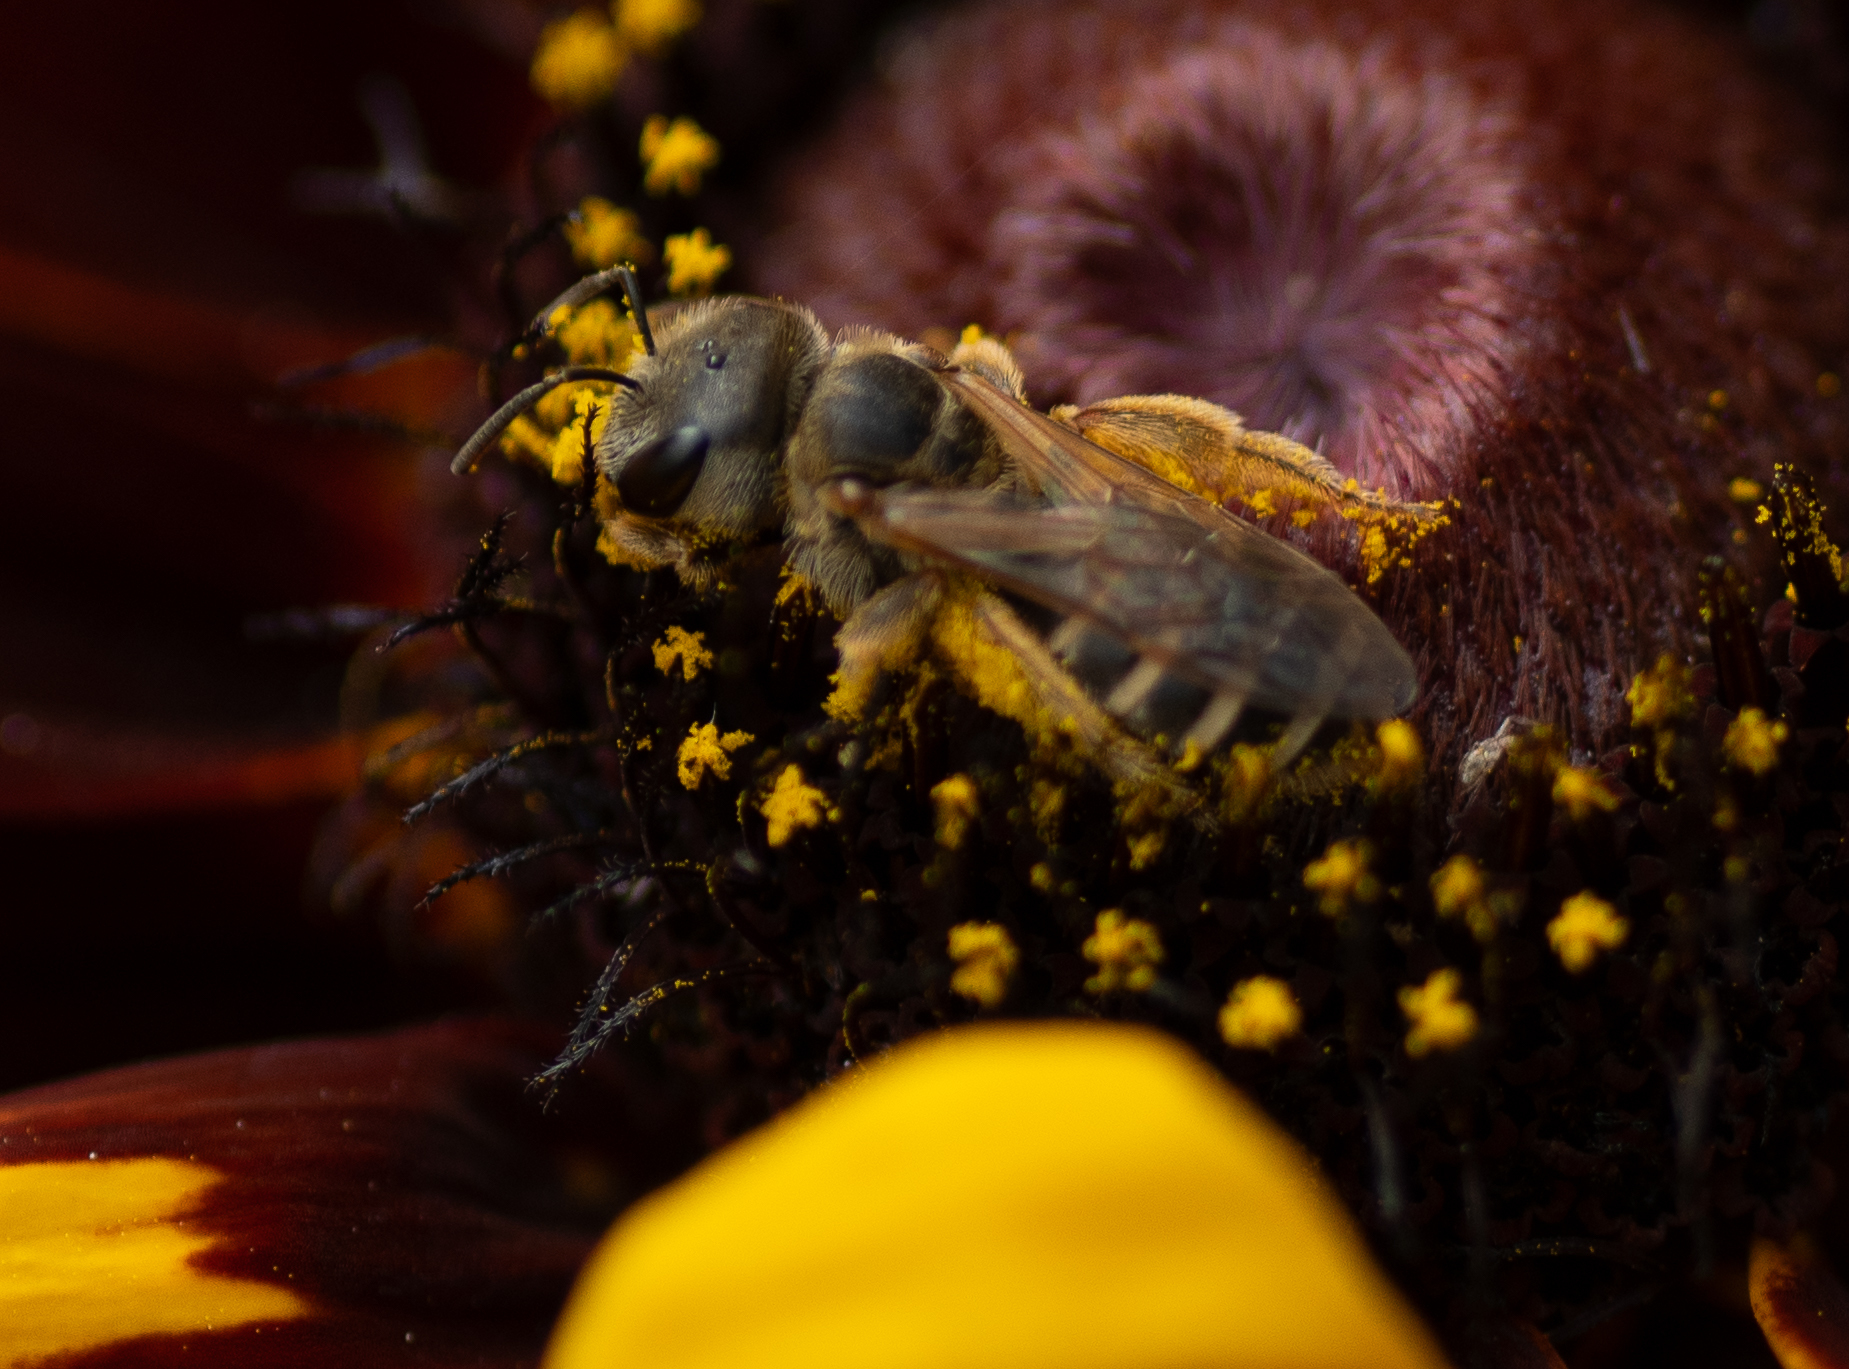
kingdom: Animalia
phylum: Arthropoda
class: Insecta
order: Hymenoptera
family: Halictidae
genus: Halictus
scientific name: Halictus ligatus
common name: Ligated furrow bee
